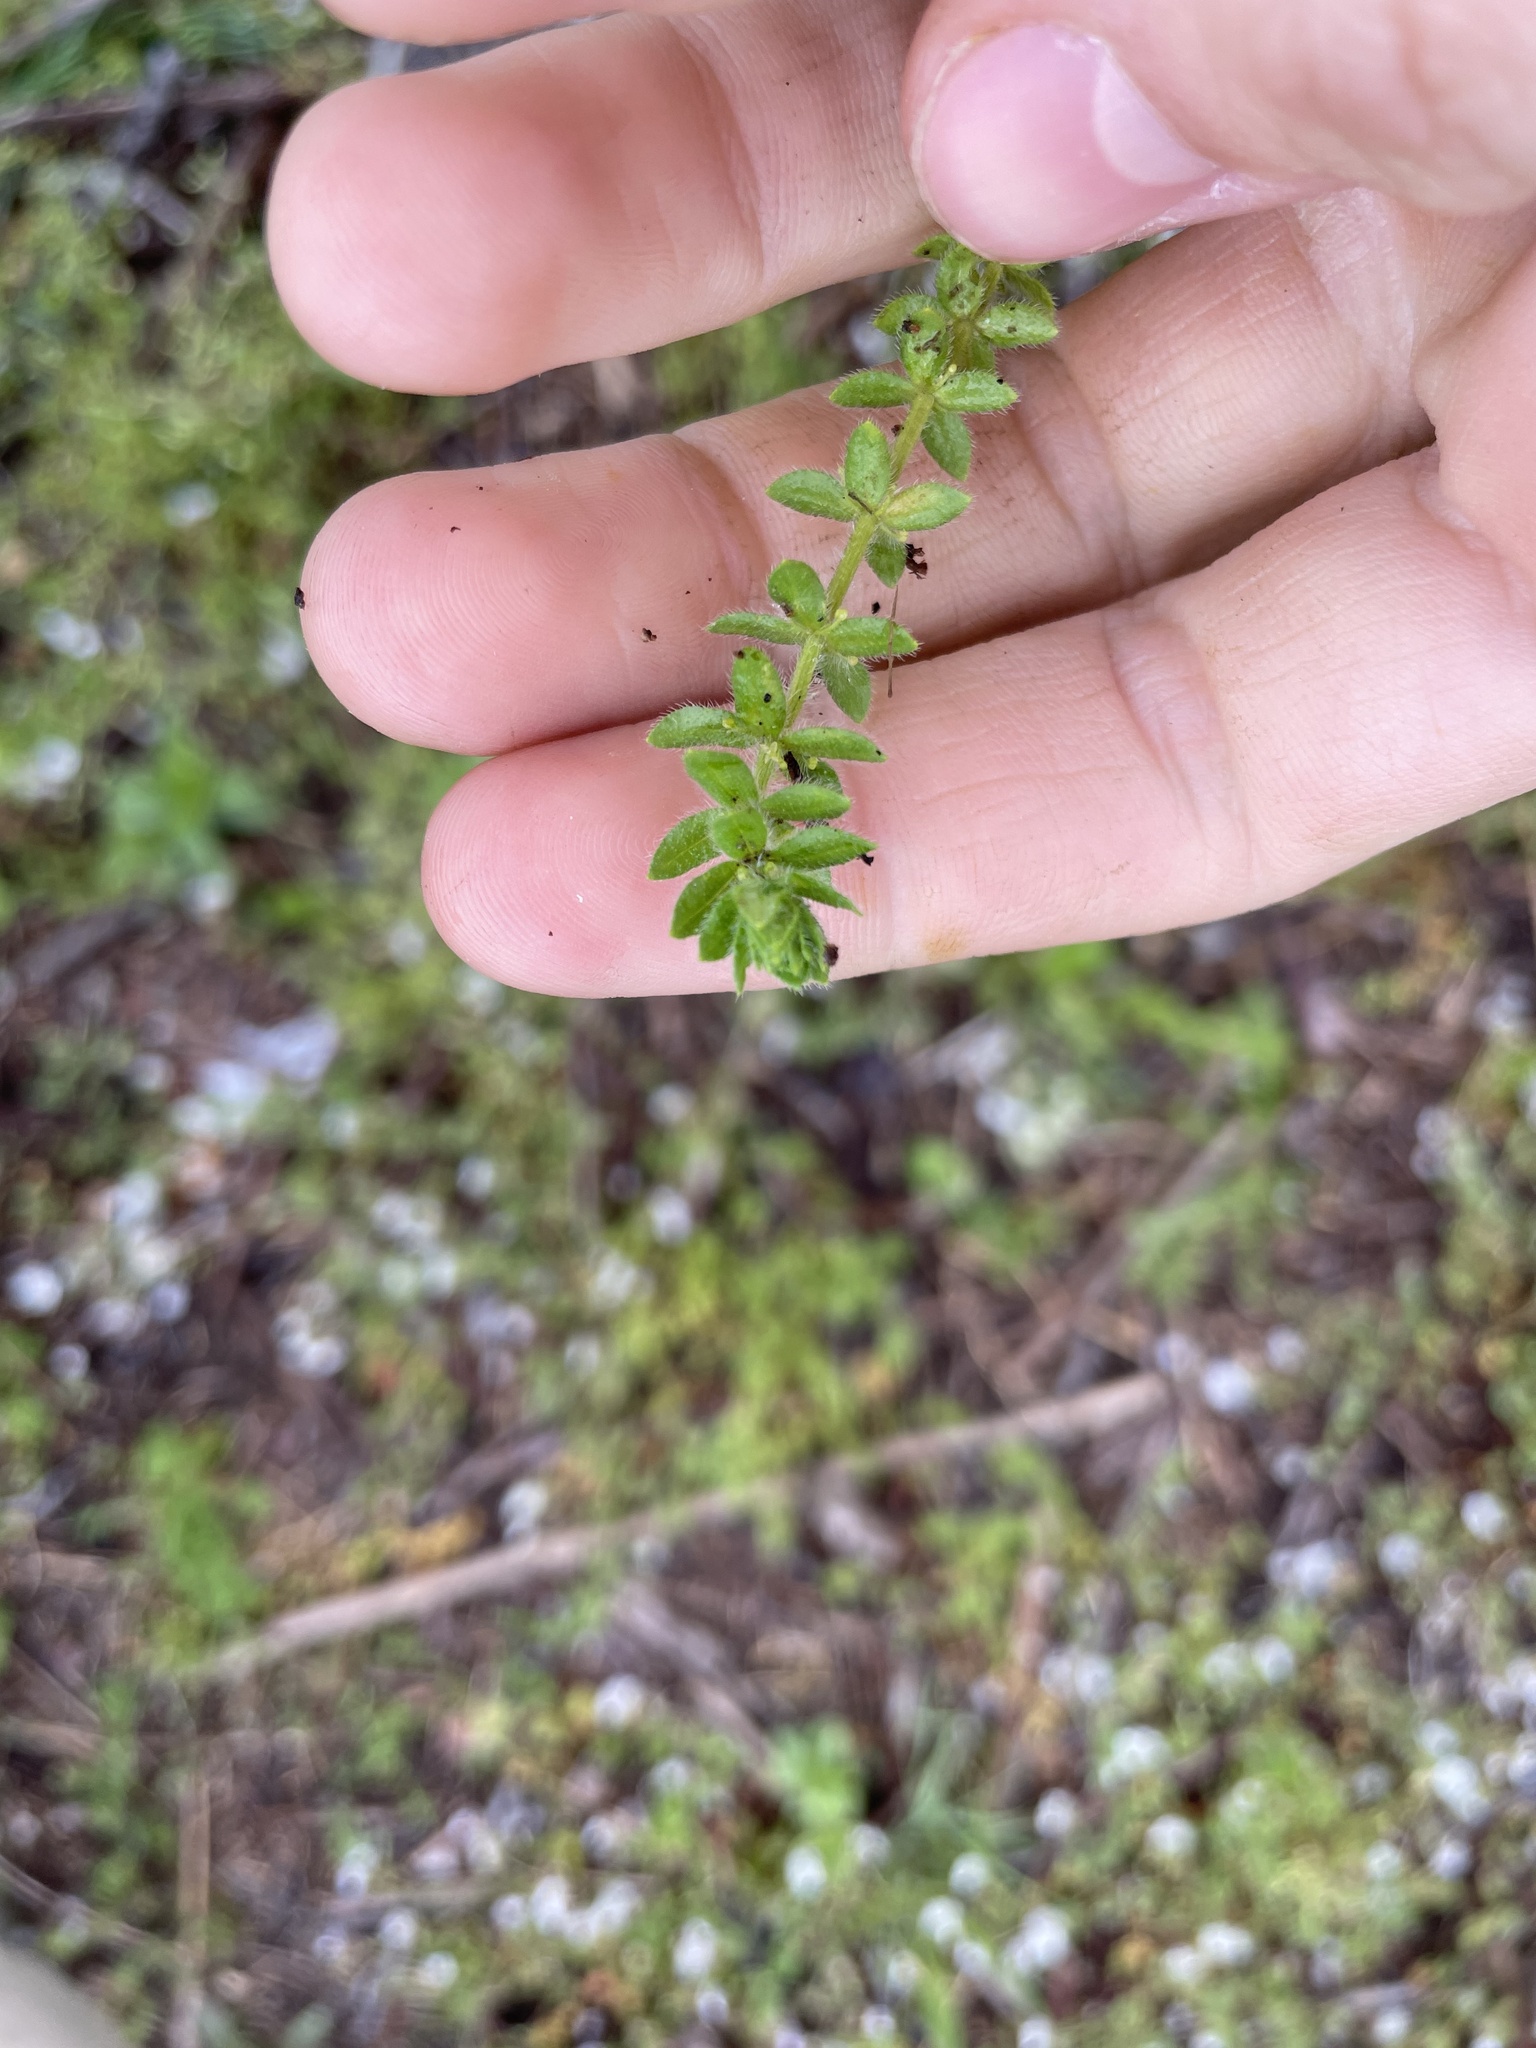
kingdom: Plantae
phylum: Tracheophyta
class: Magnoliopsida
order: Gentianales
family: Rubiaceae
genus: Cruciata
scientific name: Cruciata pedemontana
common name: Piedmont bedstraw
